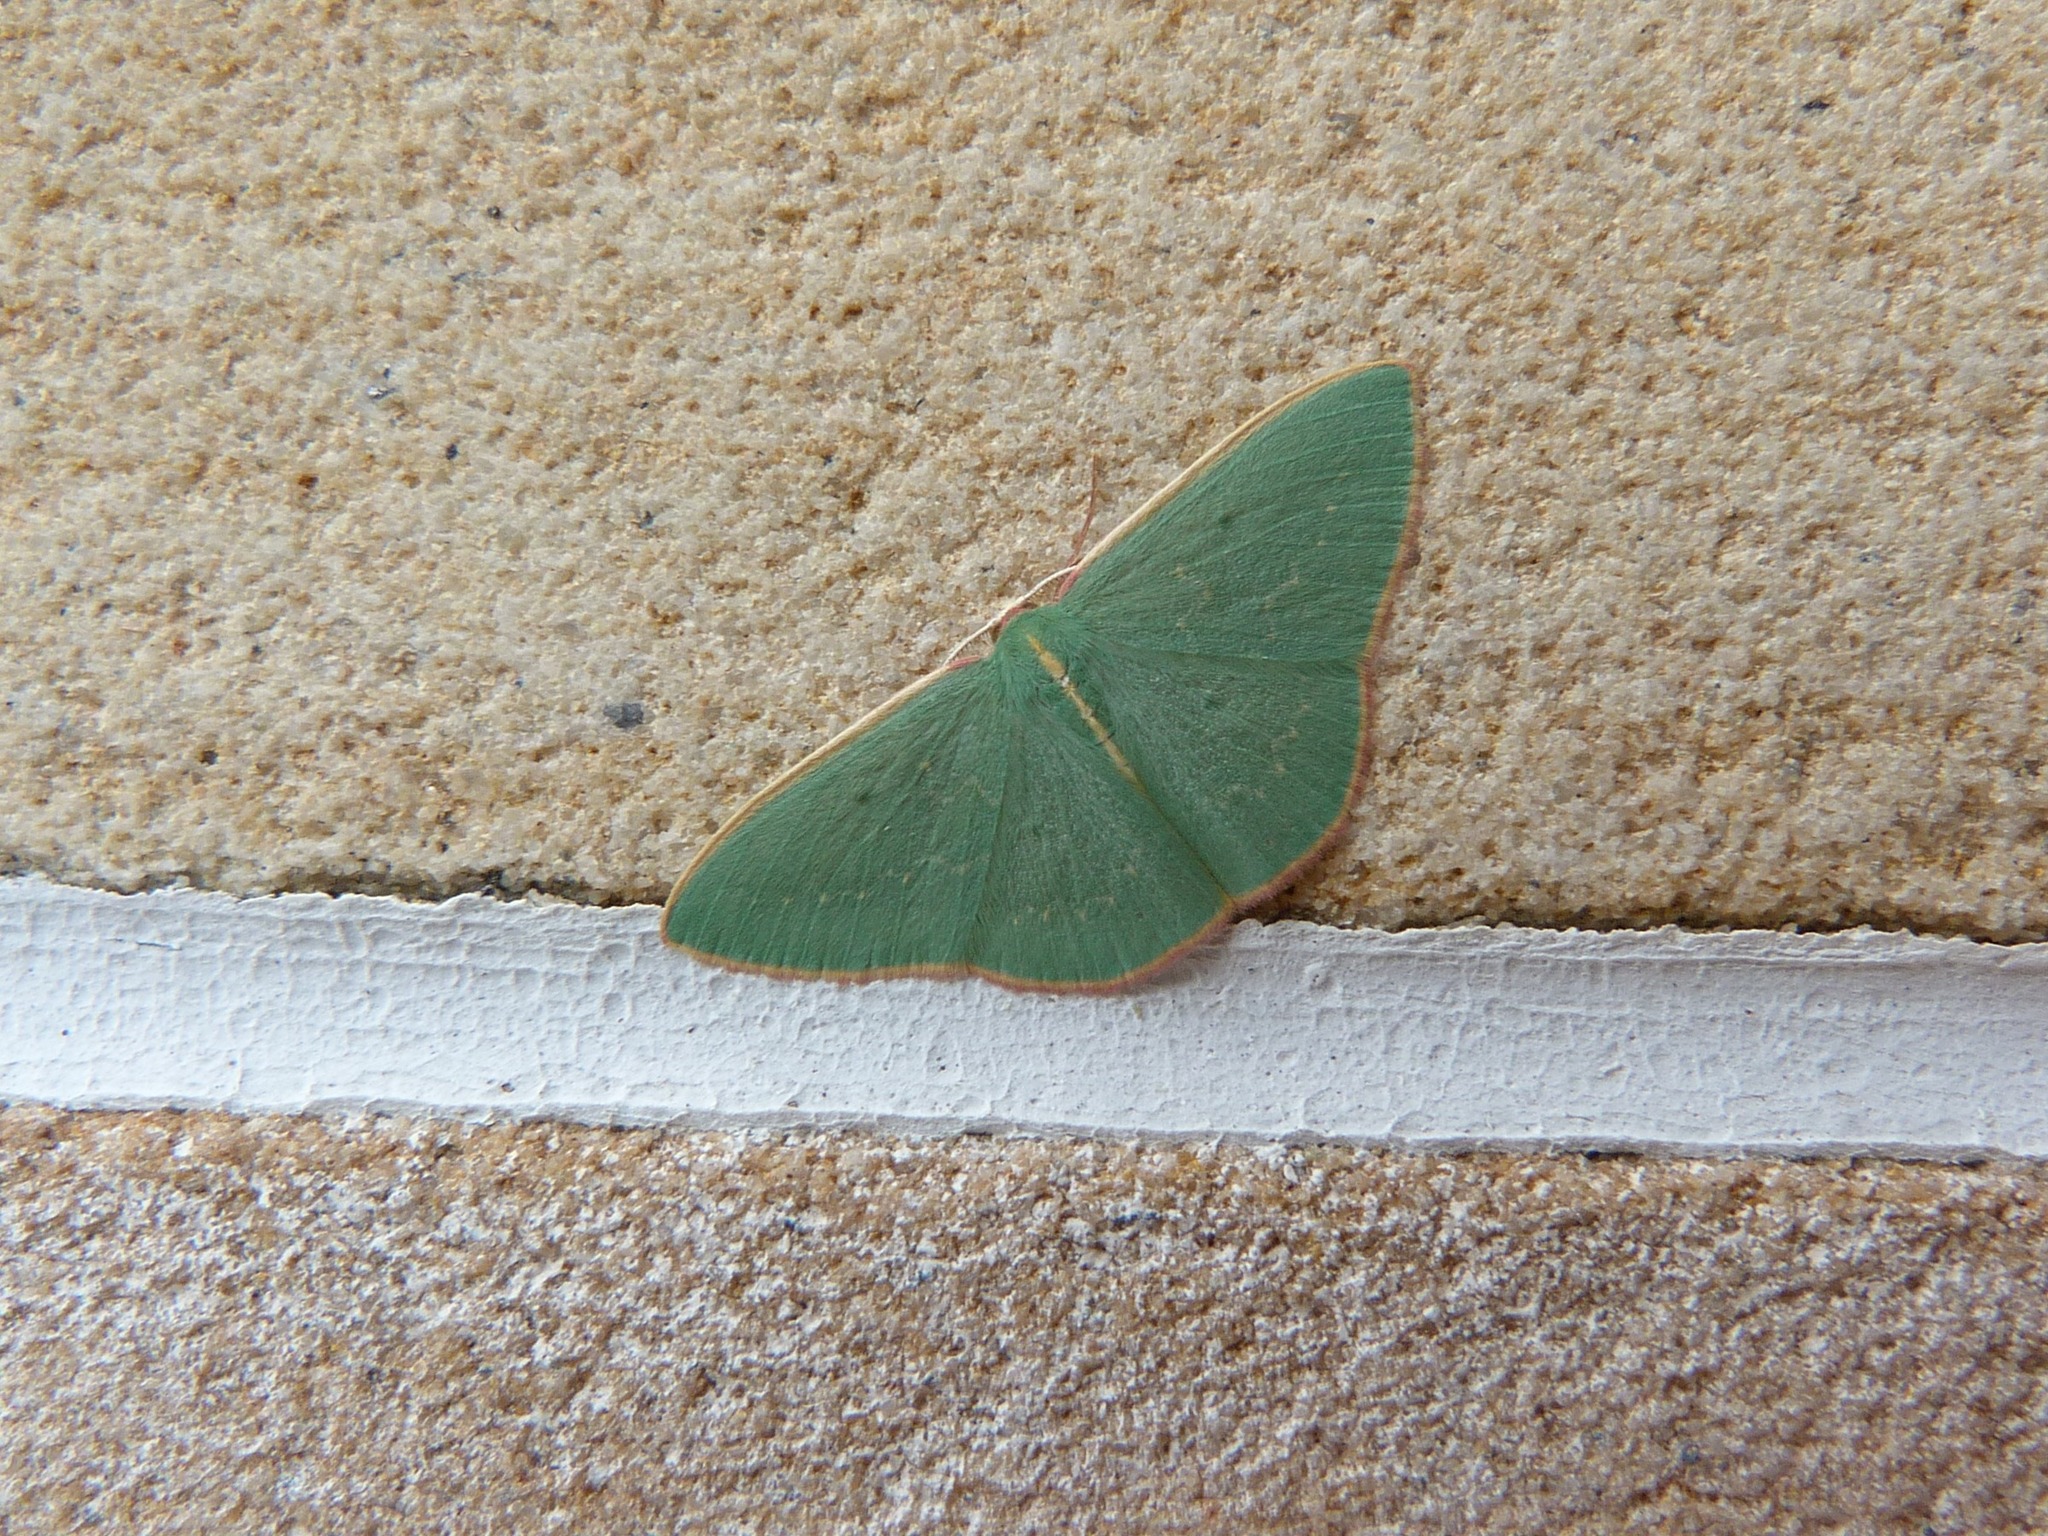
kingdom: Animalia
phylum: Arthropoda
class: Insecta
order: Lepidoptera
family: Geometridae
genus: Chlorocoma
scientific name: Chlorocoma vertumnaria
